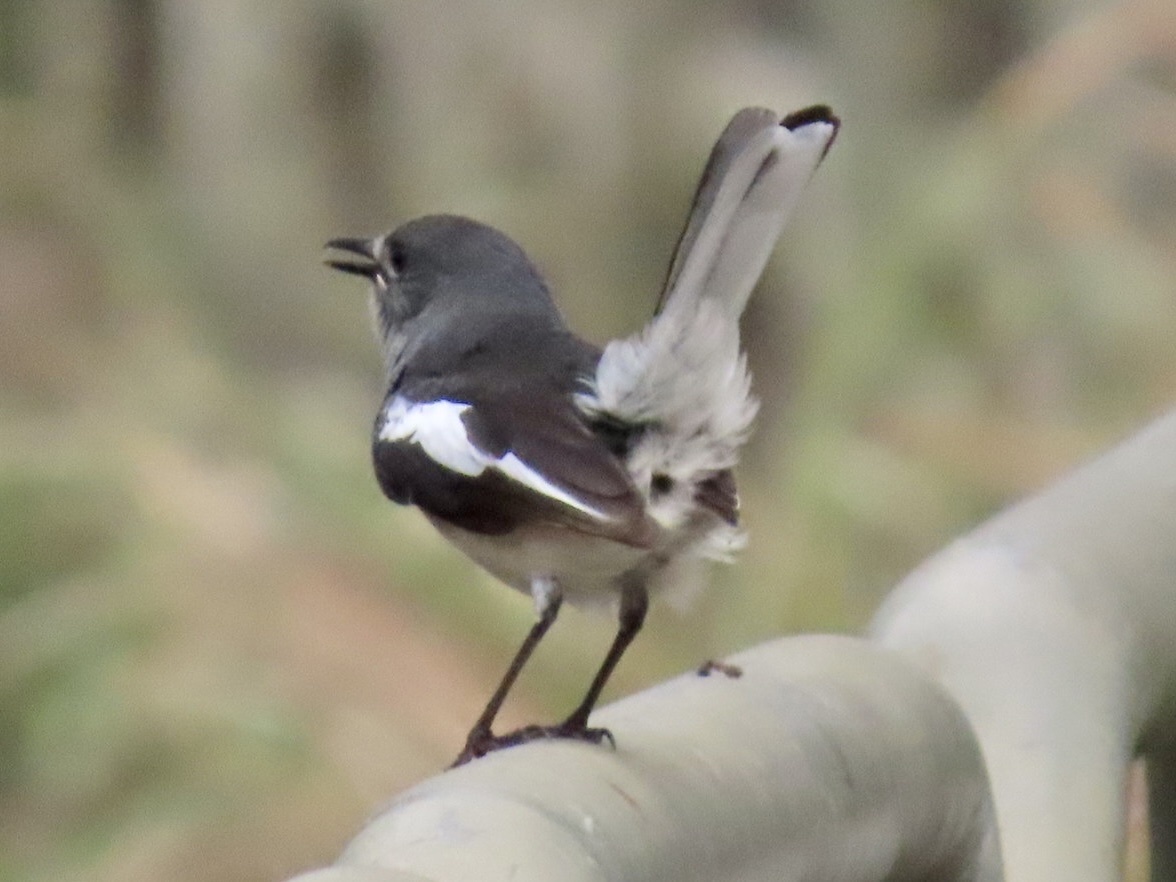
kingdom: Animalia
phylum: Chordata
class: Aves
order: Passeriformes
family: Muscicapidae
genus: Copsychus
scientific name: Copsychus saularis
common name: Oriental magpie-robin
